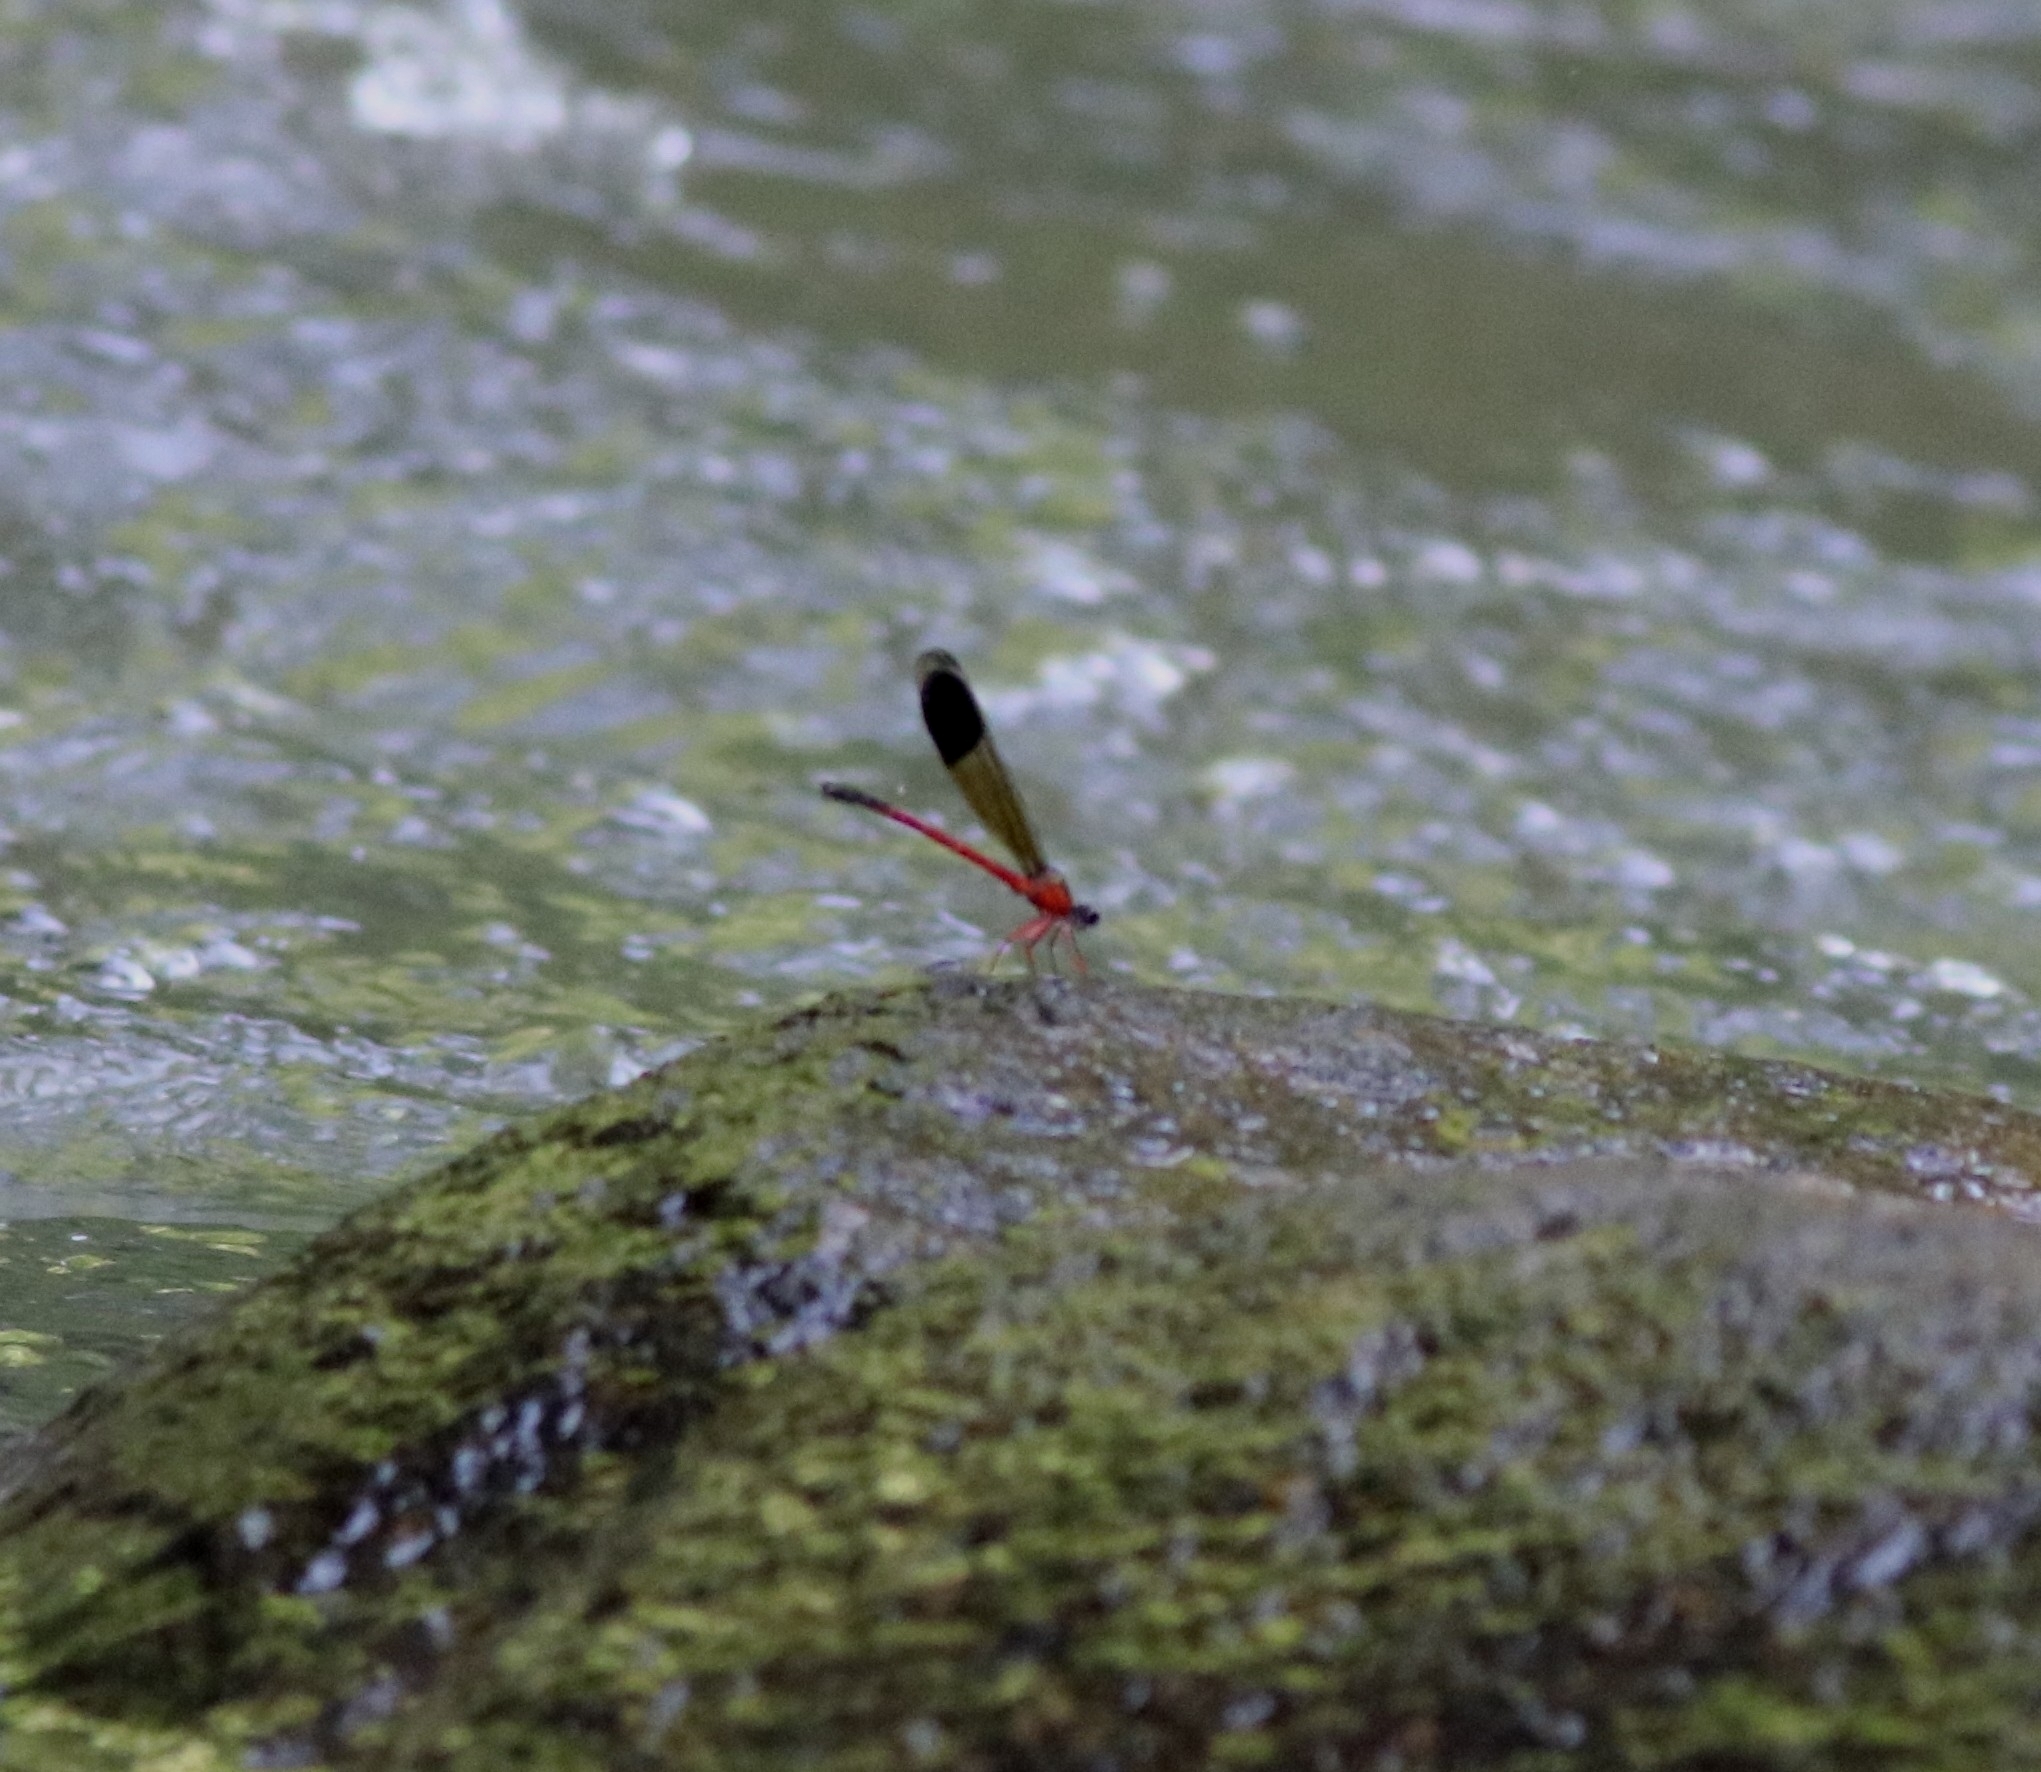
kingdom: Animalia
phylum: Arthropoda
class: Insecta
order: Odonata
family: Euphaeidae
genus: Euphaea
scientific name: Euphaea fraseri
